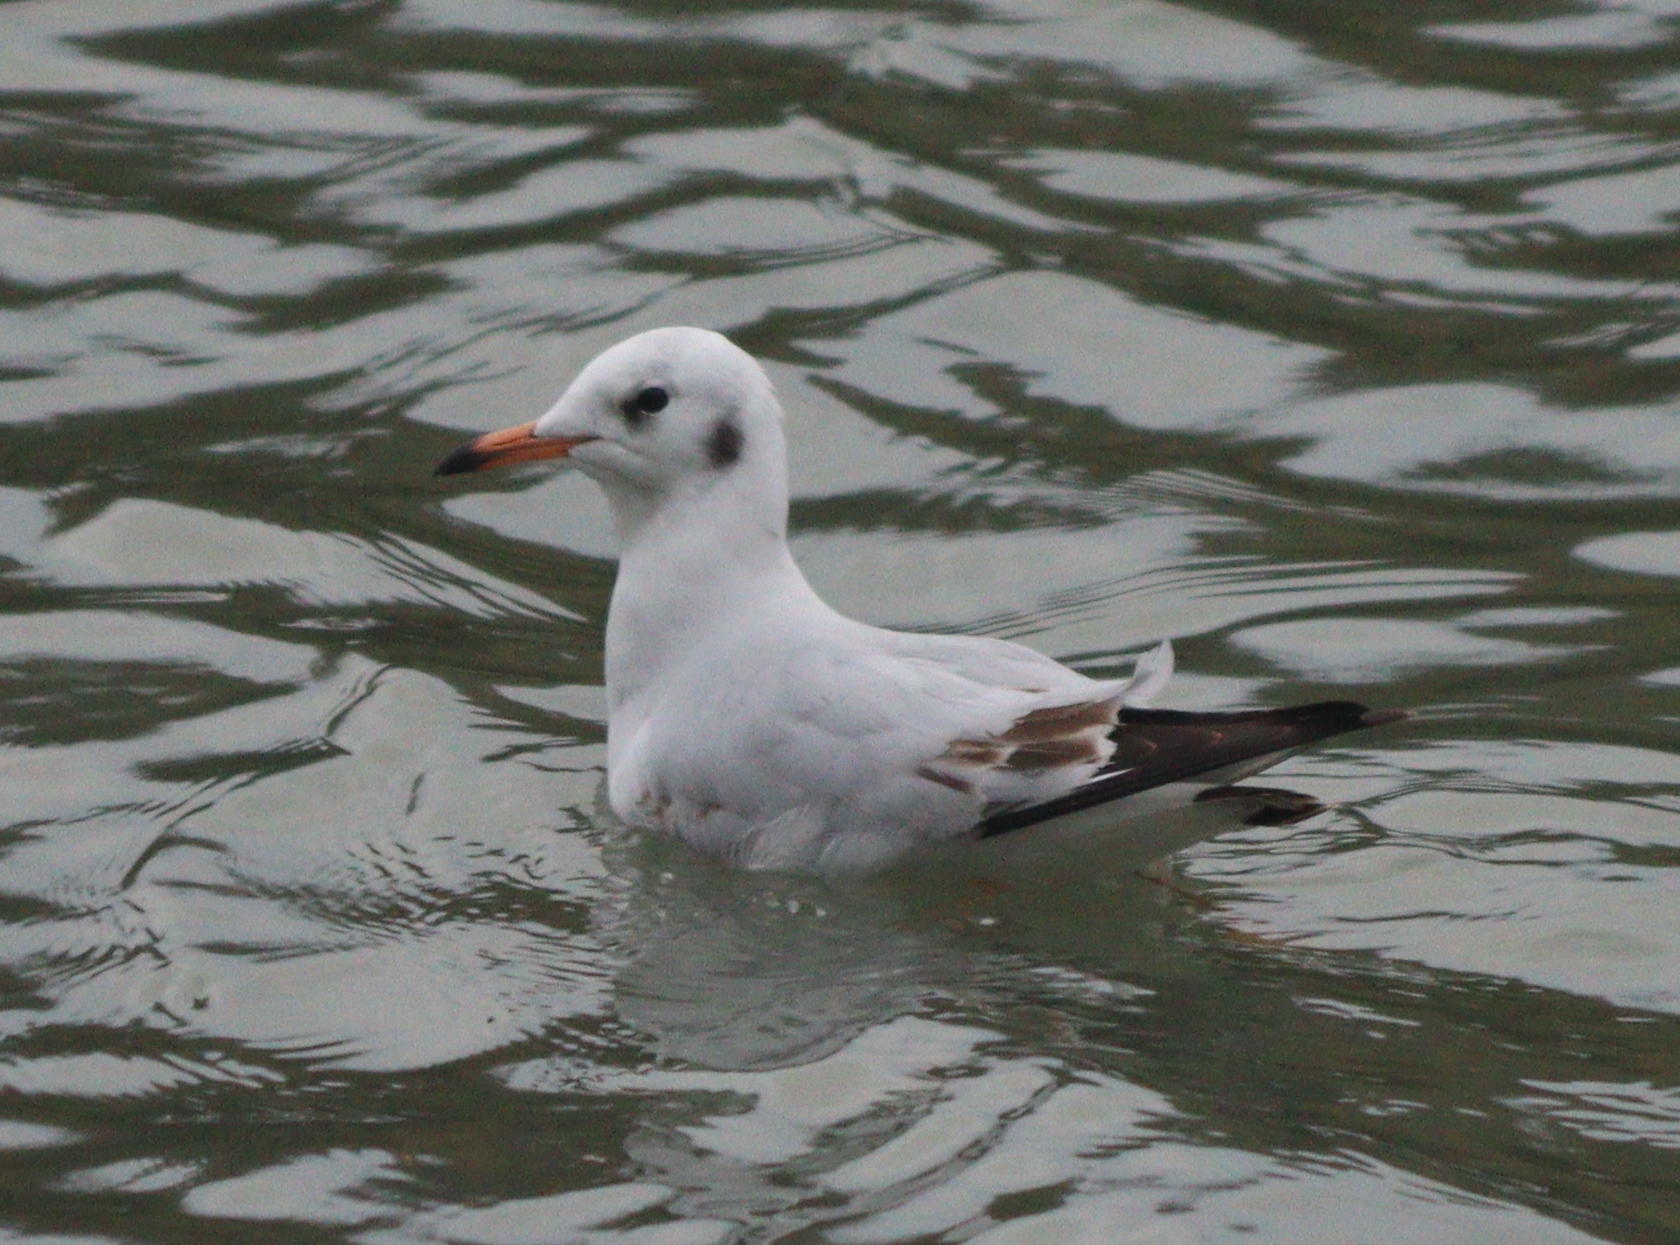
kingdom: Animalia
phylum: Chordata
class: Aves
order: Charadriiformes
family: Laridae
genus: Chroicocephalus
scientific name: Chroicocephalus ridibundus
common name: Black-headed gull
